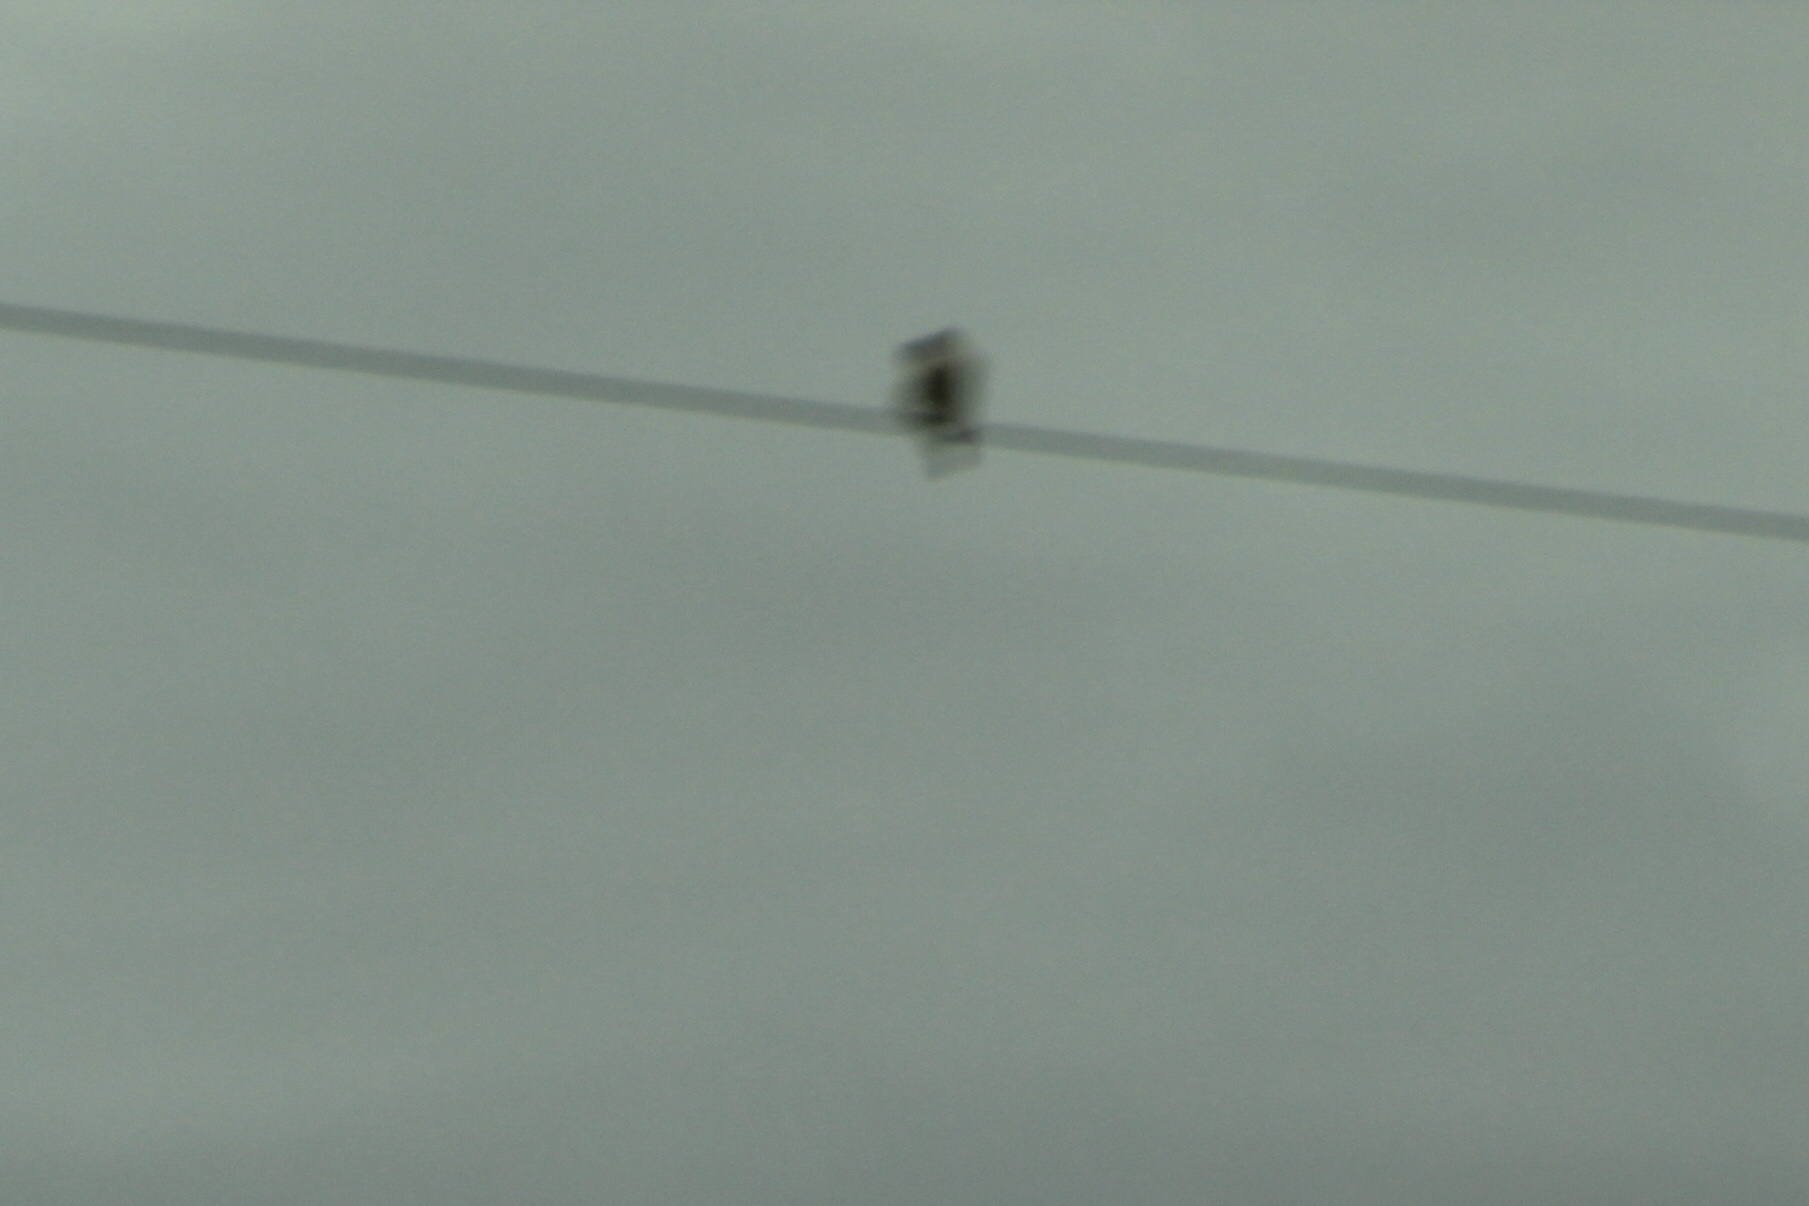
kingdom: Animalia
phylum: Chordata
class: Aves
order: Falconiformes
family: Falconidae
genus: Falco
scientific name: Falco sparverius
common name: American kestrel
